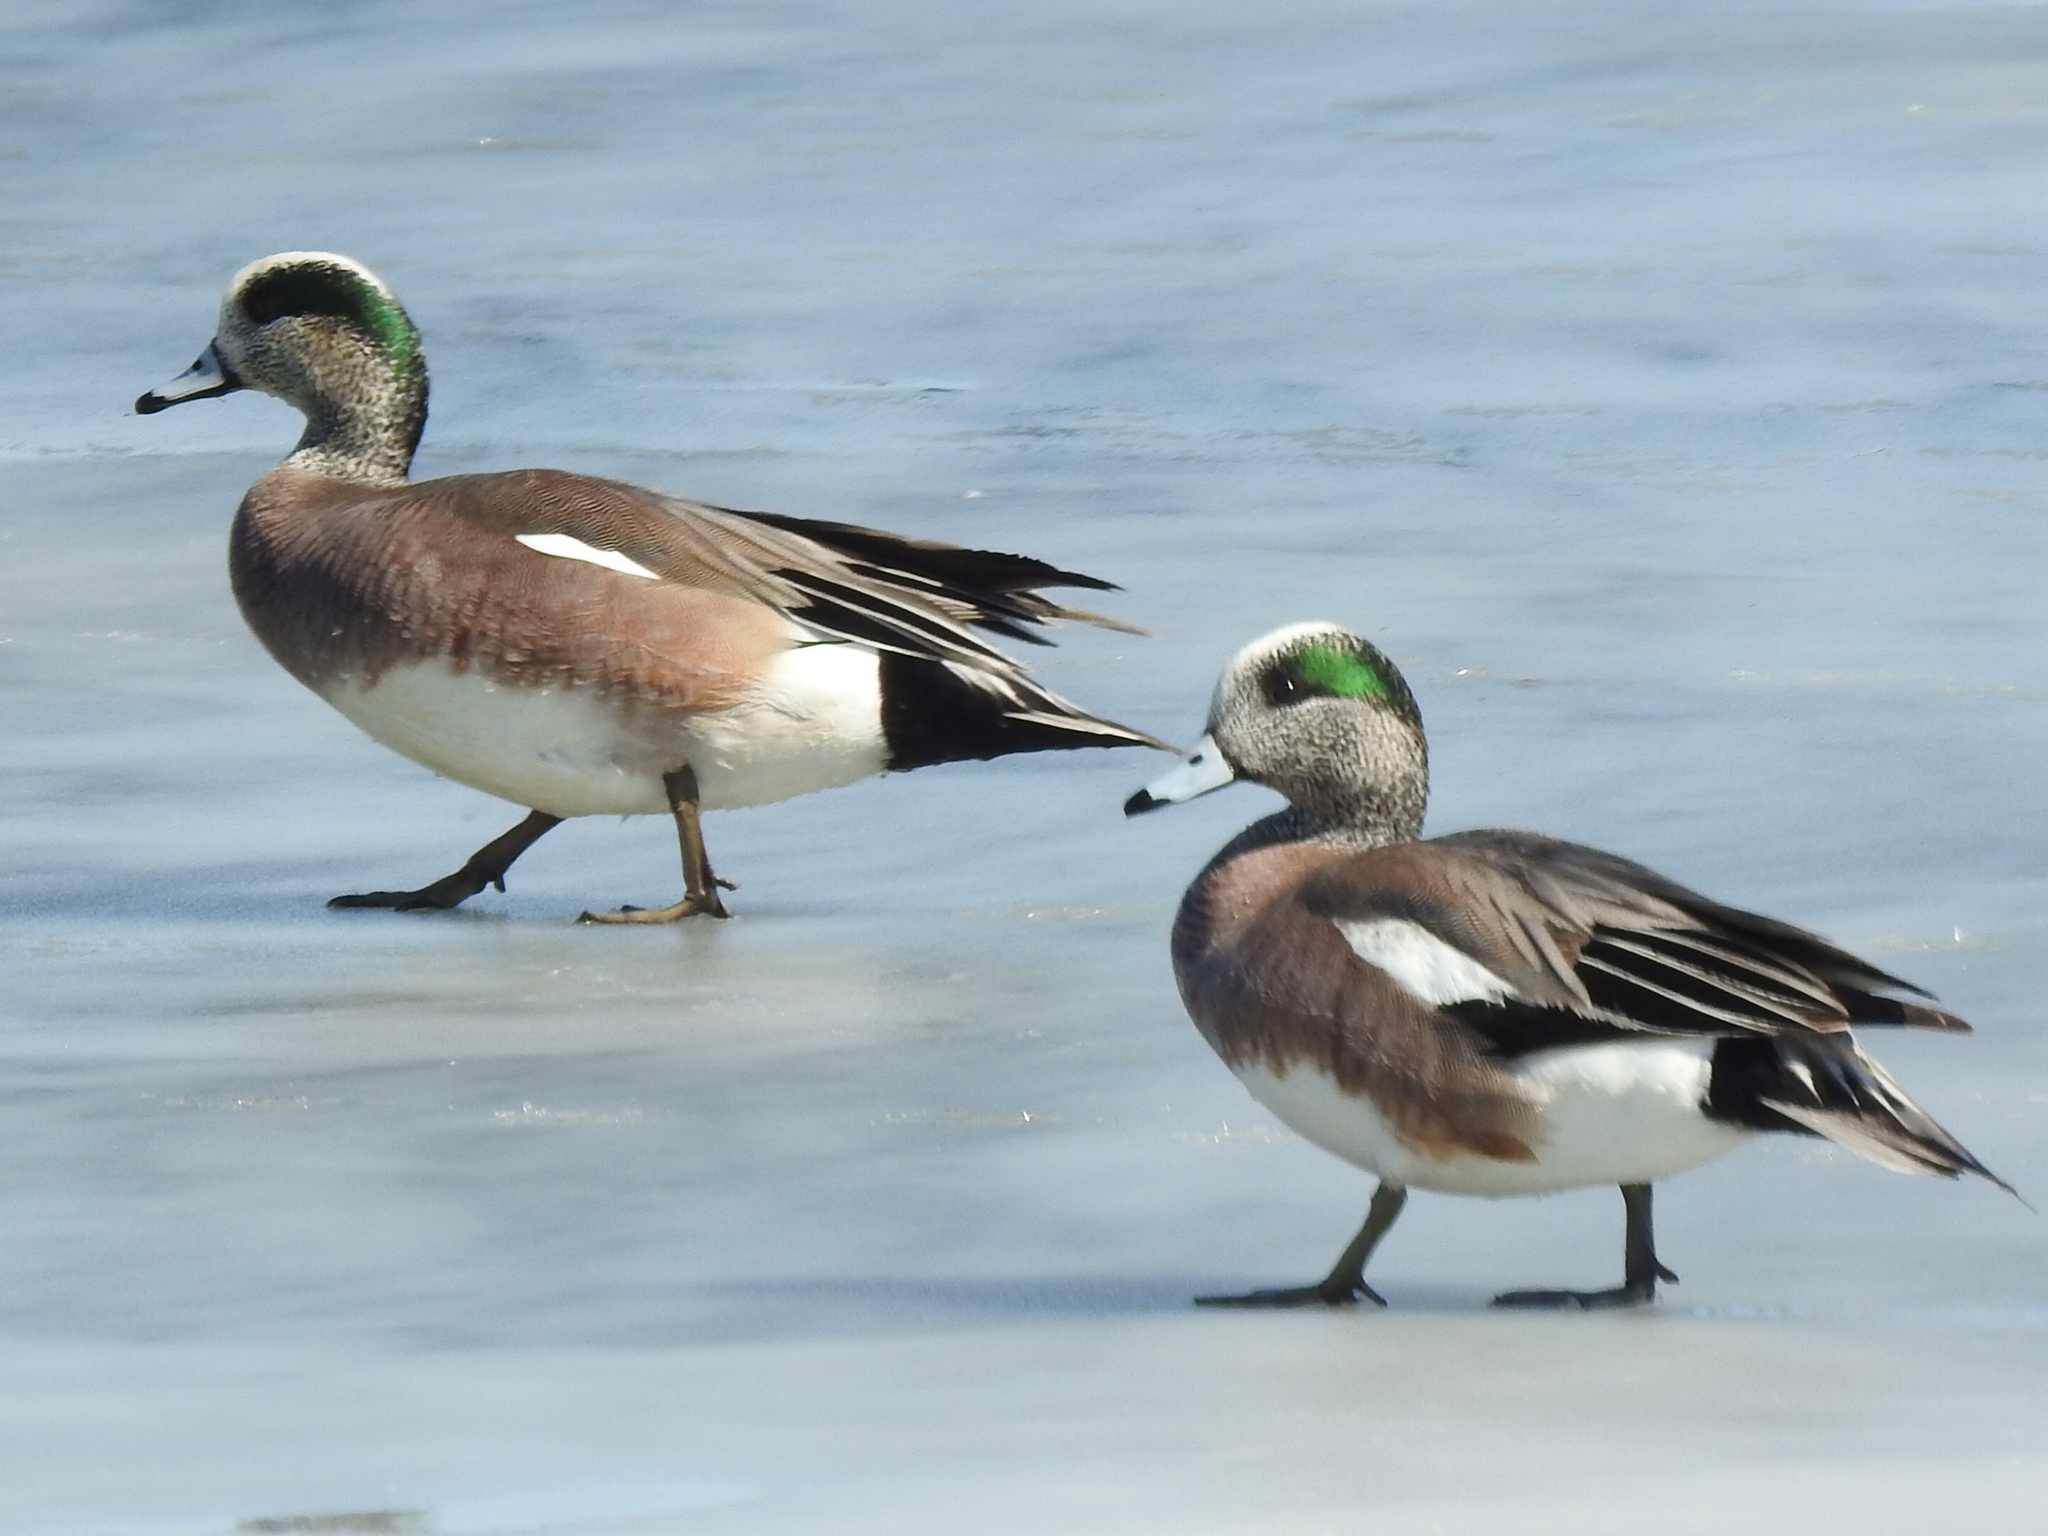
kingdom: Animalia
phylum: Chordata
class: Aves
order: Anseriformes
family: Anatidae
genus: Mareca
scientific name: Mareca americana
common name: American wigeon
